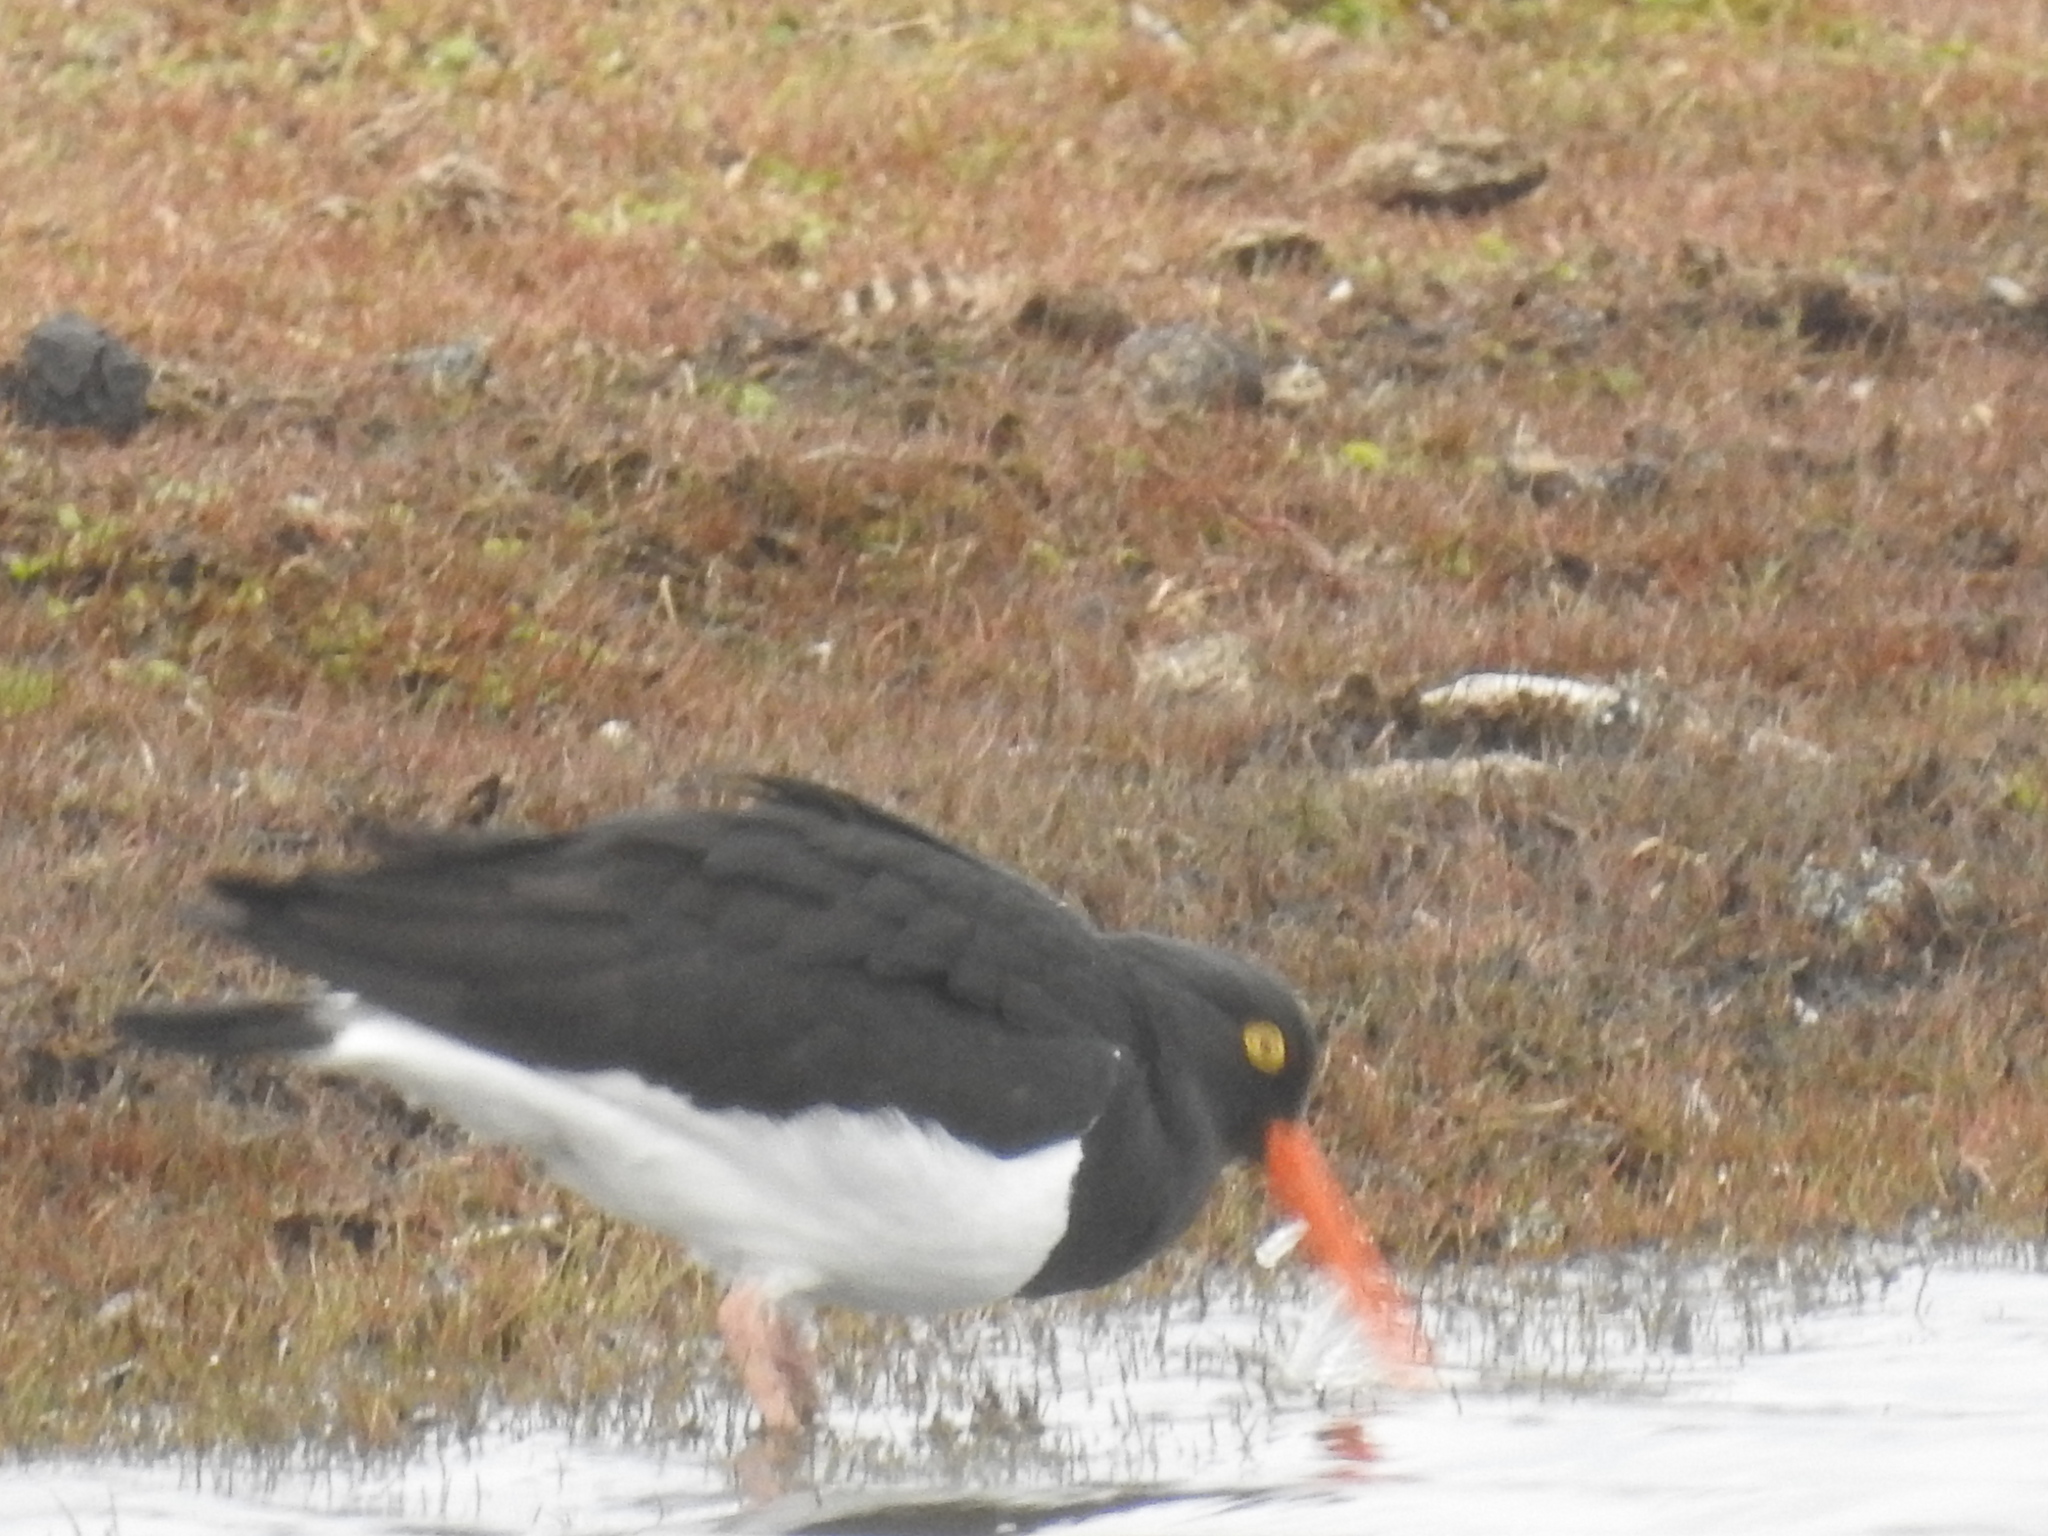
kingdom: Animalia
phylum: Chordata
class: Aves
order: Charadriiformes
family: Haematopodidae
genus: Haematopus
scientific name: Haematopus leucopodus
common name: Magellanic oystercatcher
